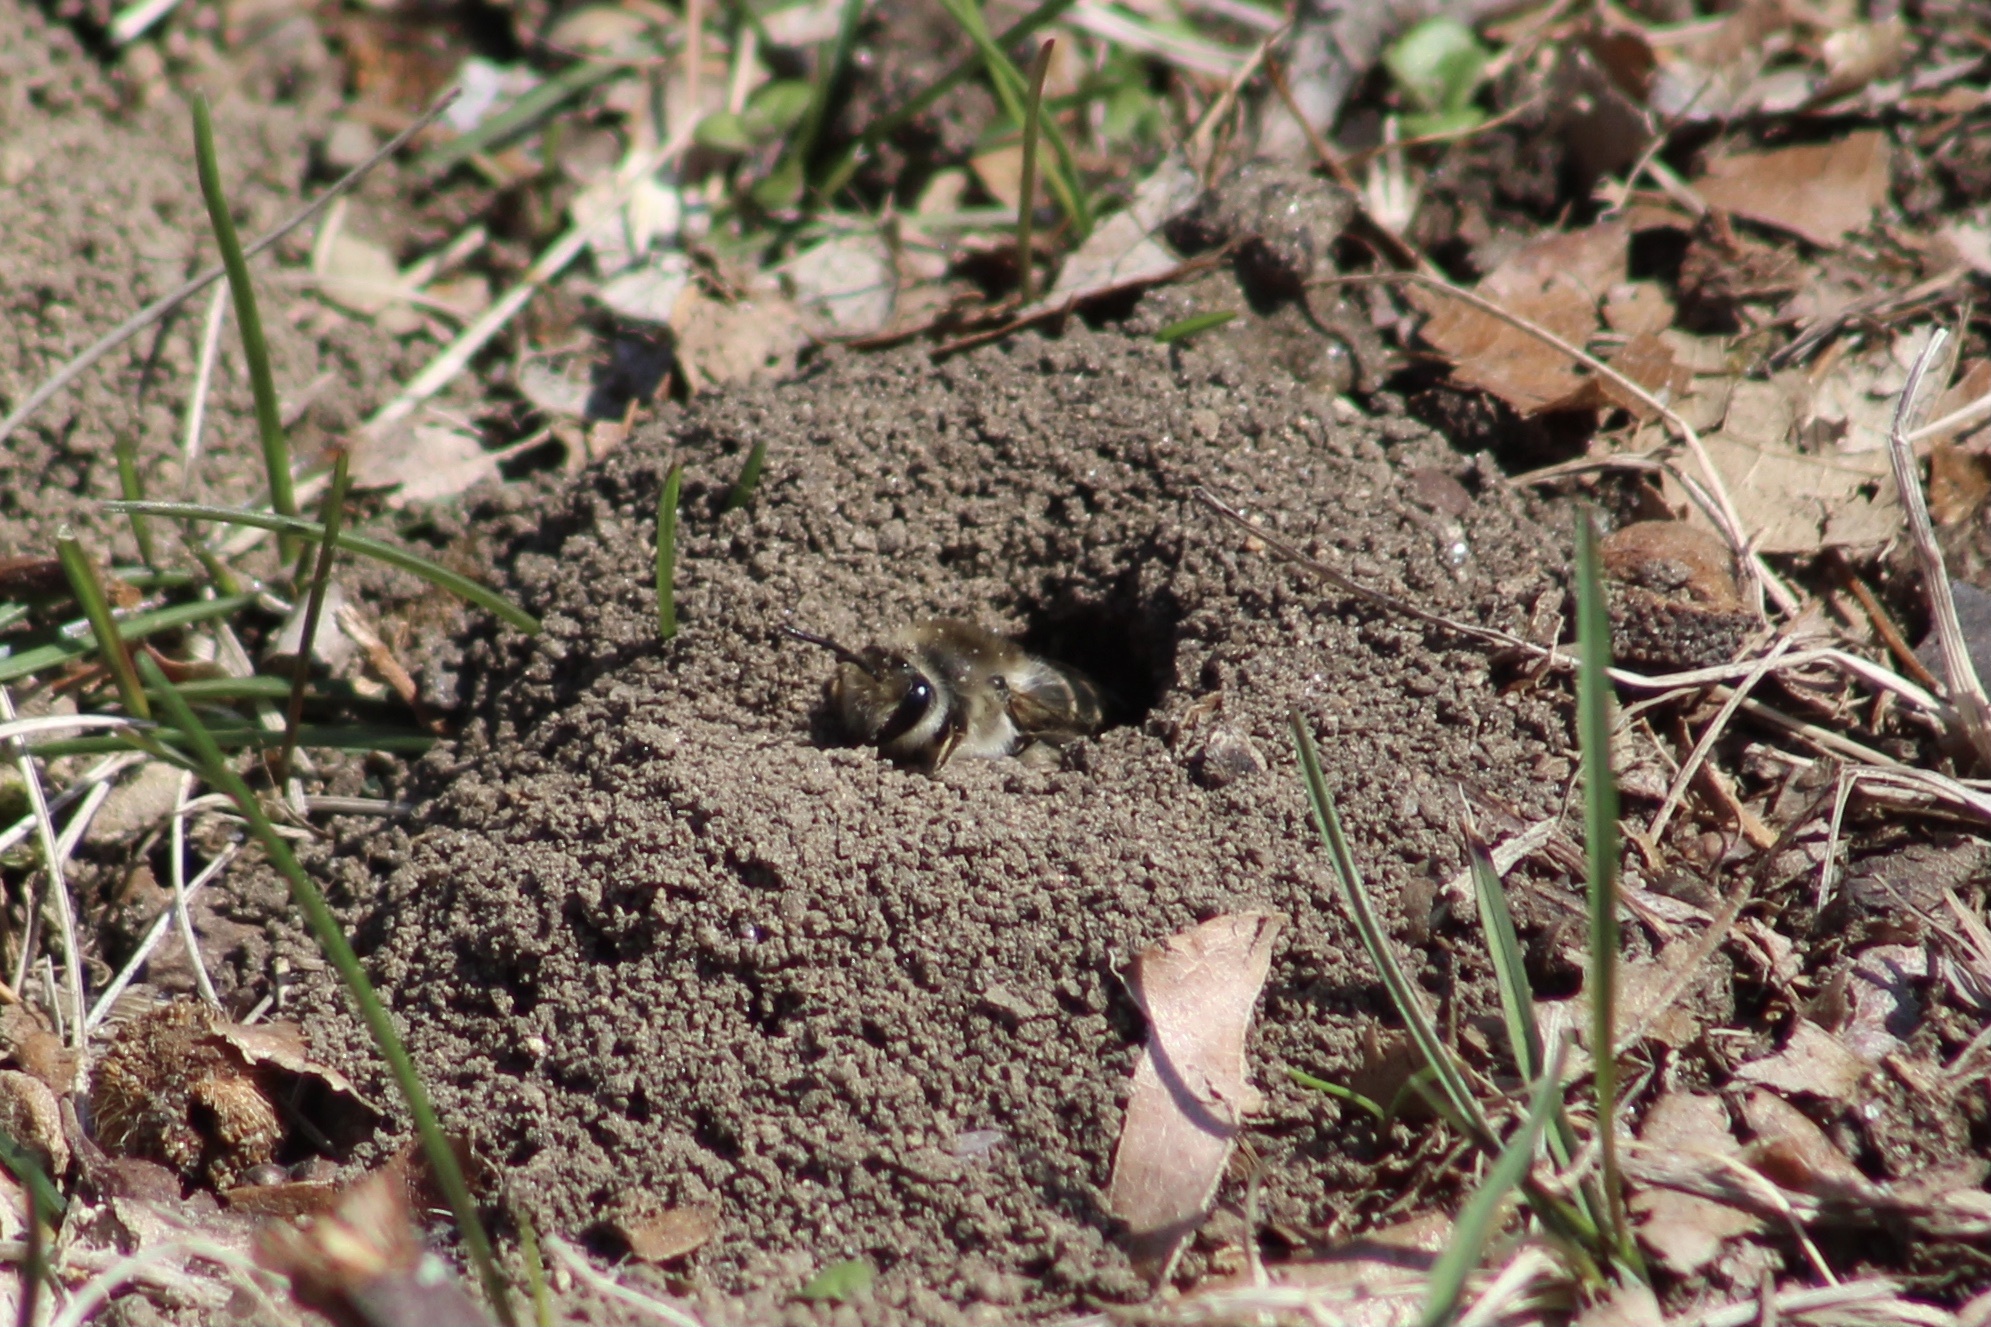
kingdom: Animalia
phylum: Arthropoda
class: Insecta
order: Hymenoptera
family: Colletidae
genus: Colletes
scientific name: Colletes inaequalis
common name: Unequal cellophane bee
